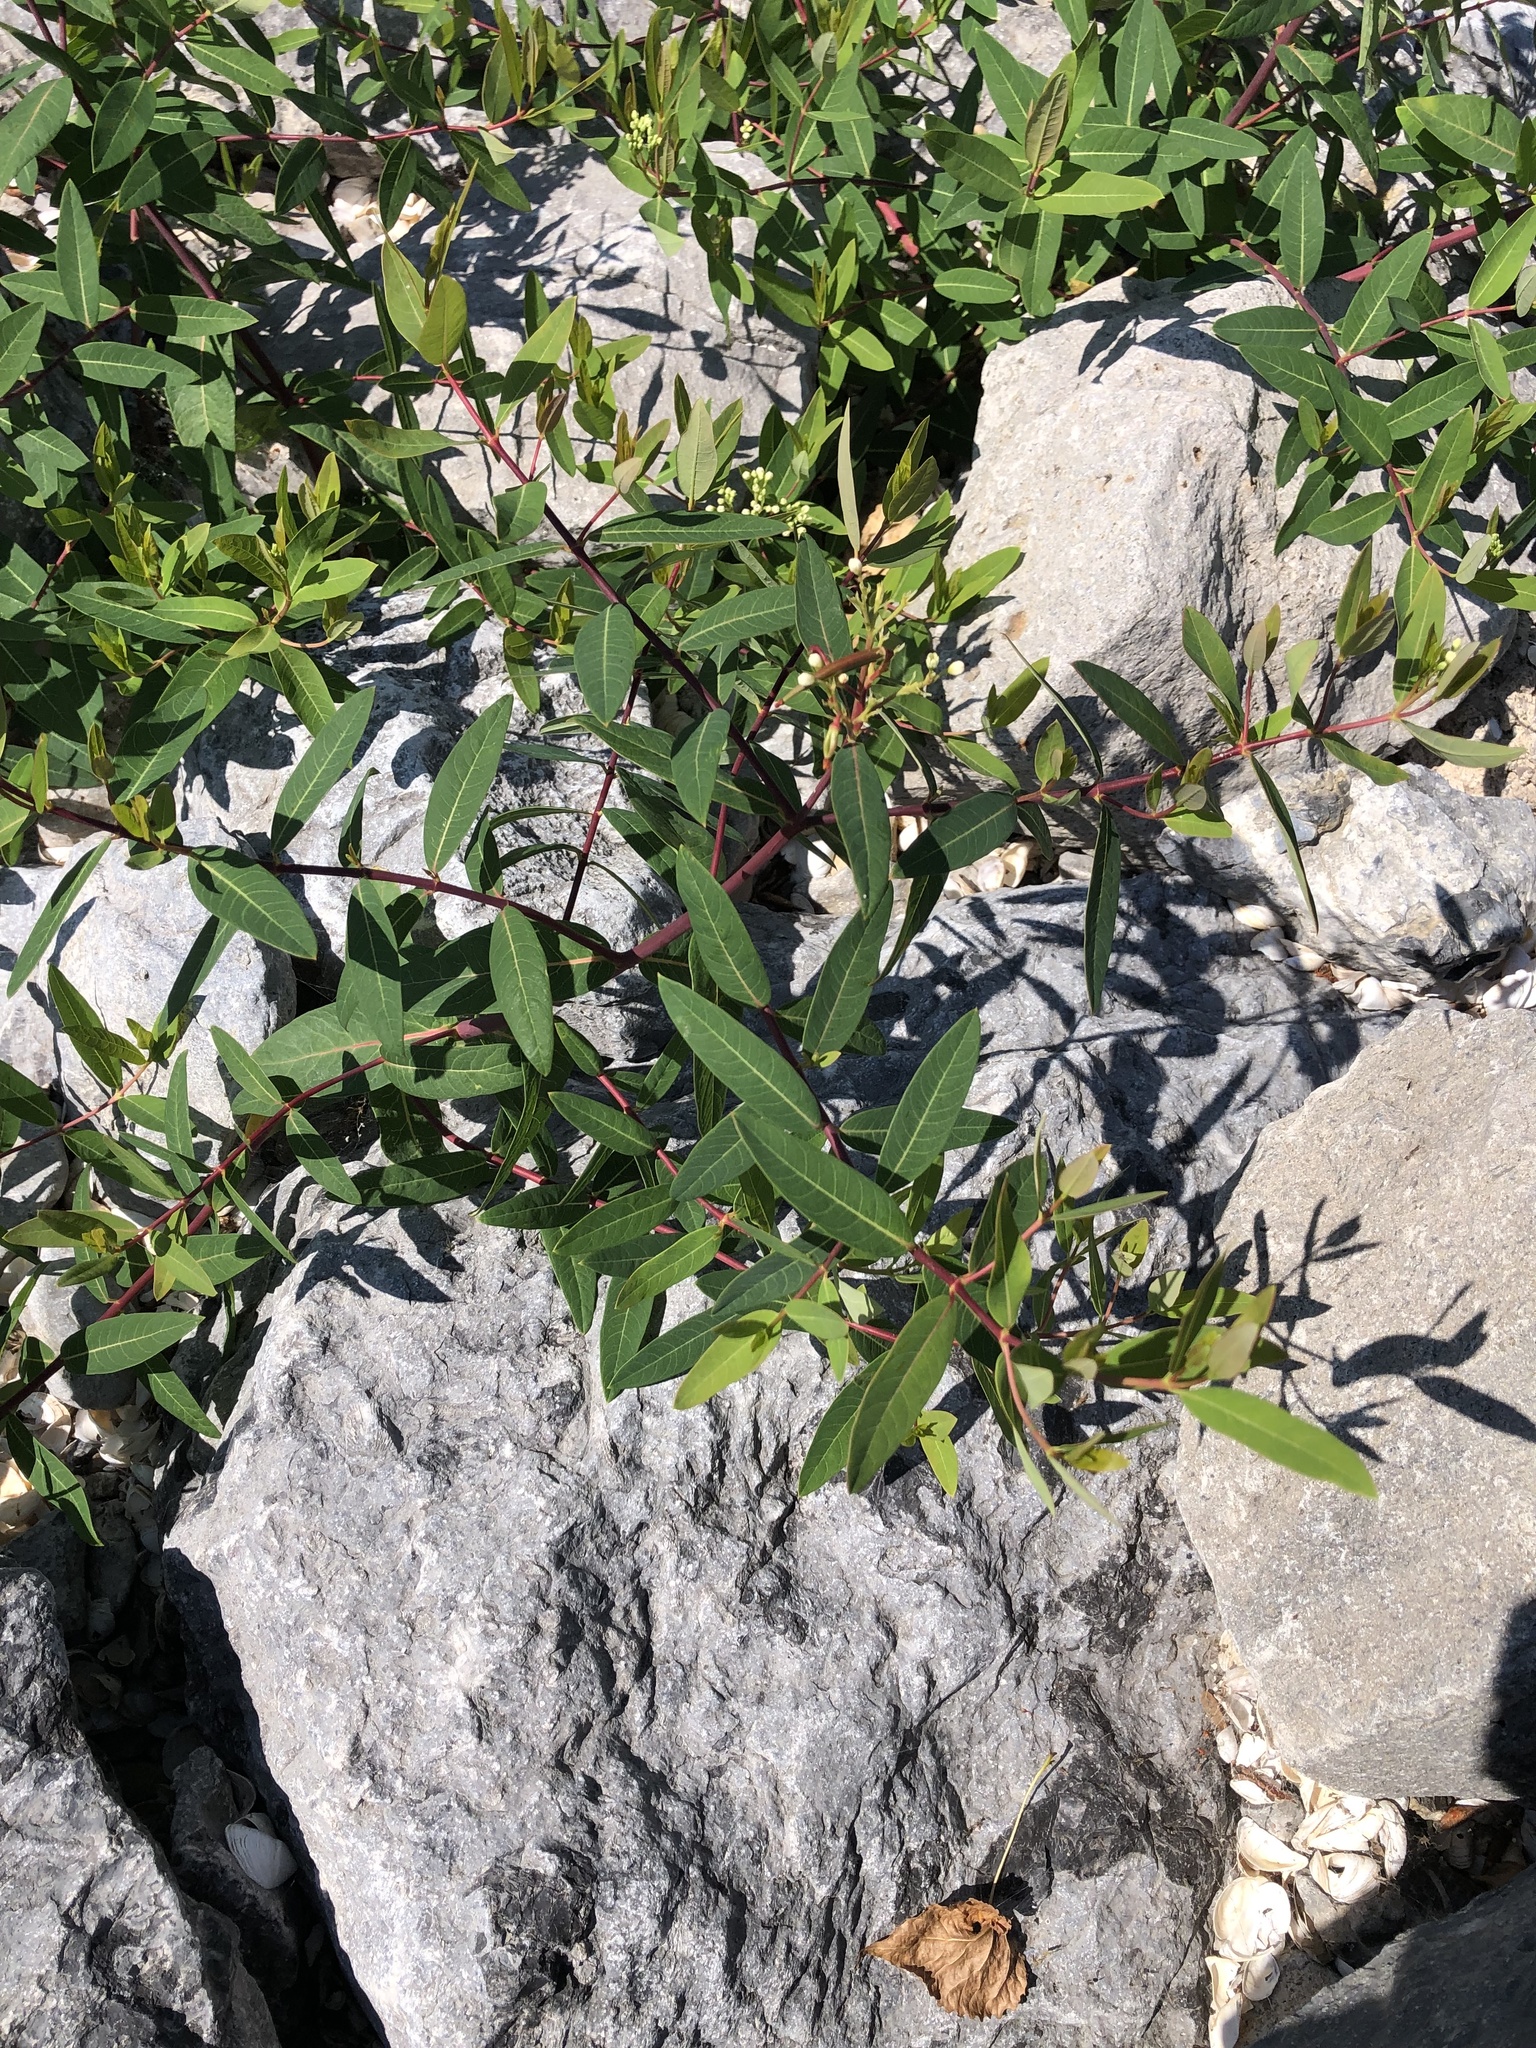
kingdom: Plantae
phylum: Tracheophyta
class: Magnoliopsida
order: Gentianales
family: Apocynaceae
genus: Apocynum
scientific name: Apocynum cannabinum
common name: Hemp dogbane
